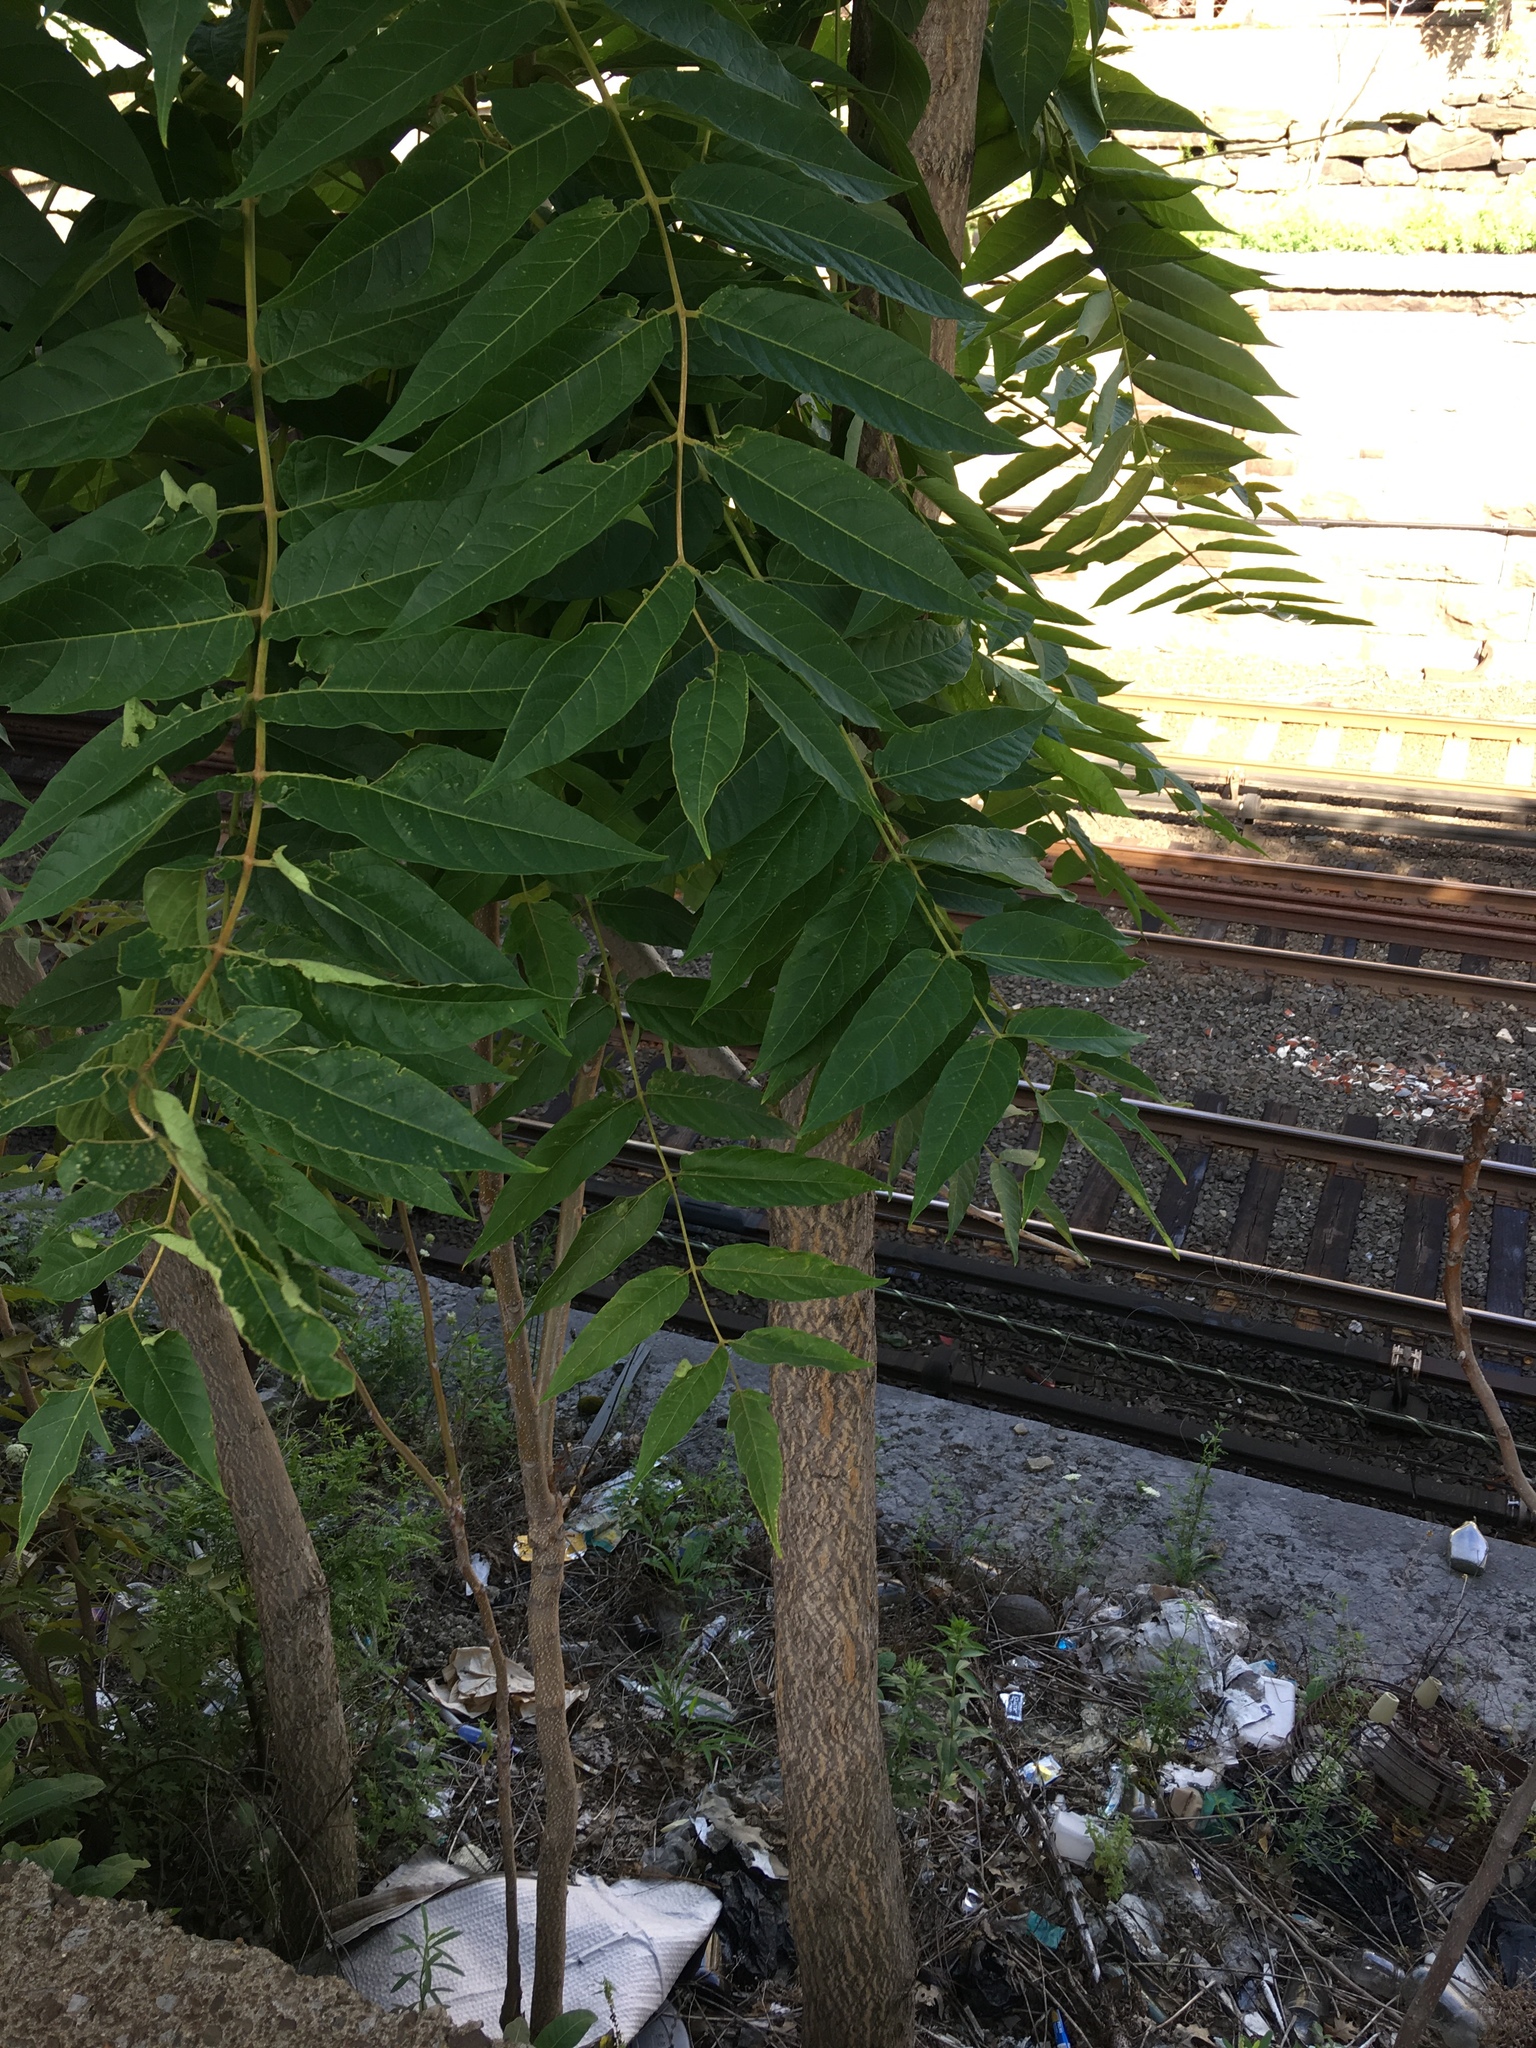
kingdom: Plantae
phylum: Tracheophyta
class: Magnoliopsida
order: Sapindales
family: Simaroubaceae
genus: Ailanthus
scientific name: Ailanthus altissima
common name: Tree-of-heaven
